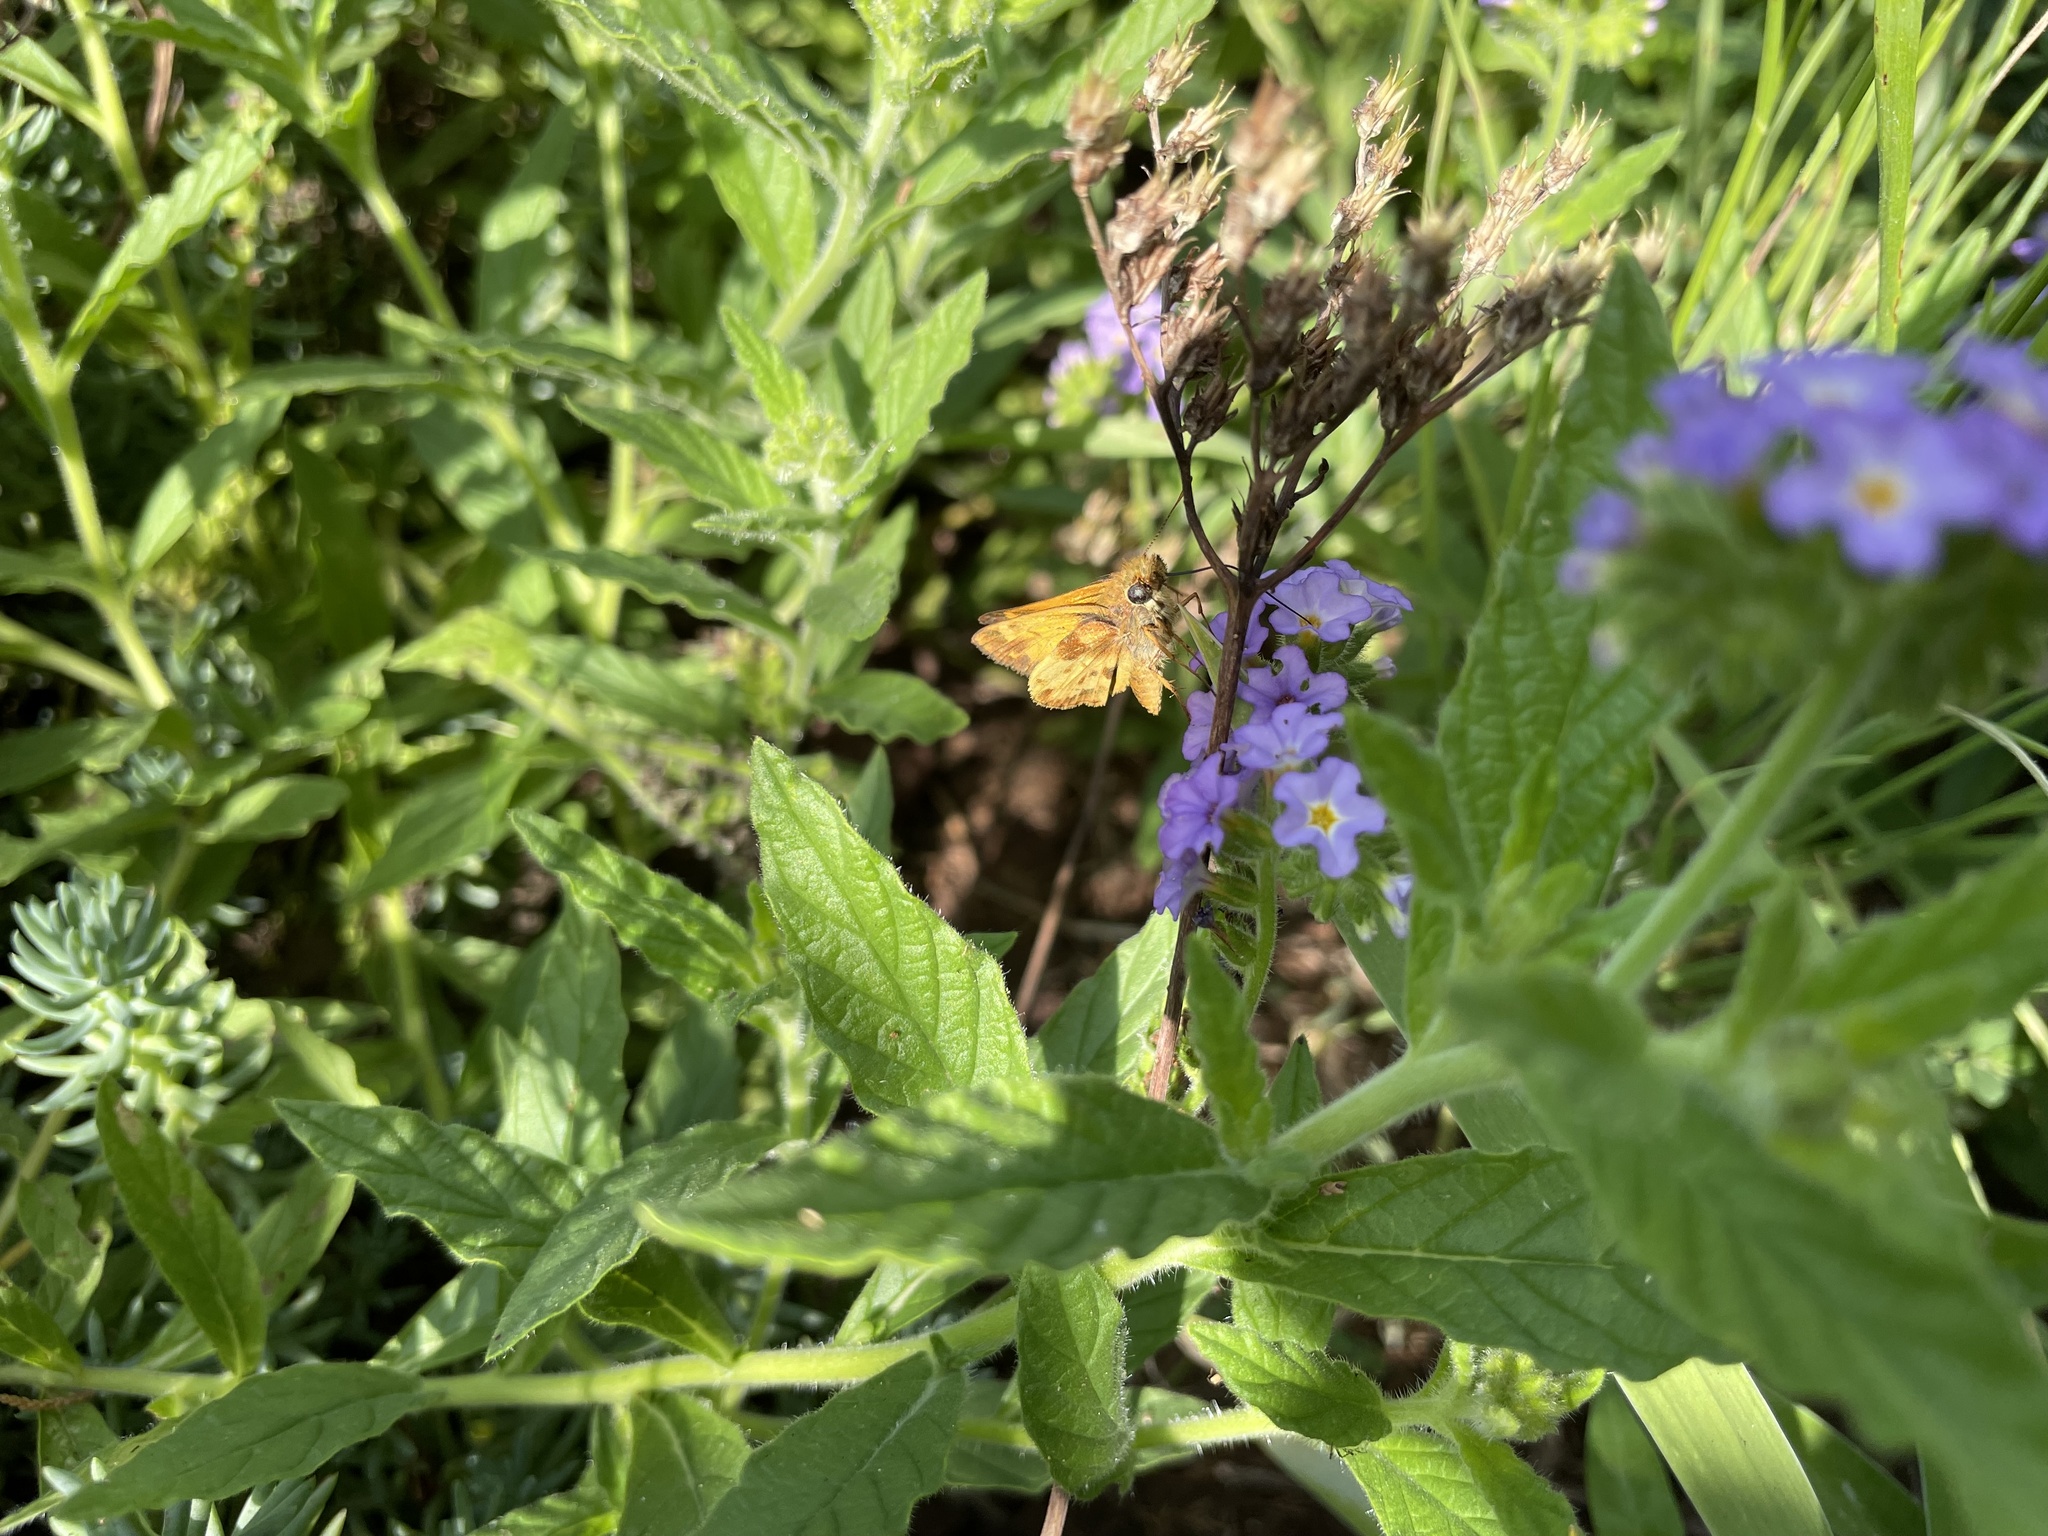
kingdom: Animalia
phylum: Arthropoda
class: Insecta
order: Lepidoptera
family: Hesperiidae
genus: Lon
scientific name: Lon zabulon
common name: Zabulon skipper
